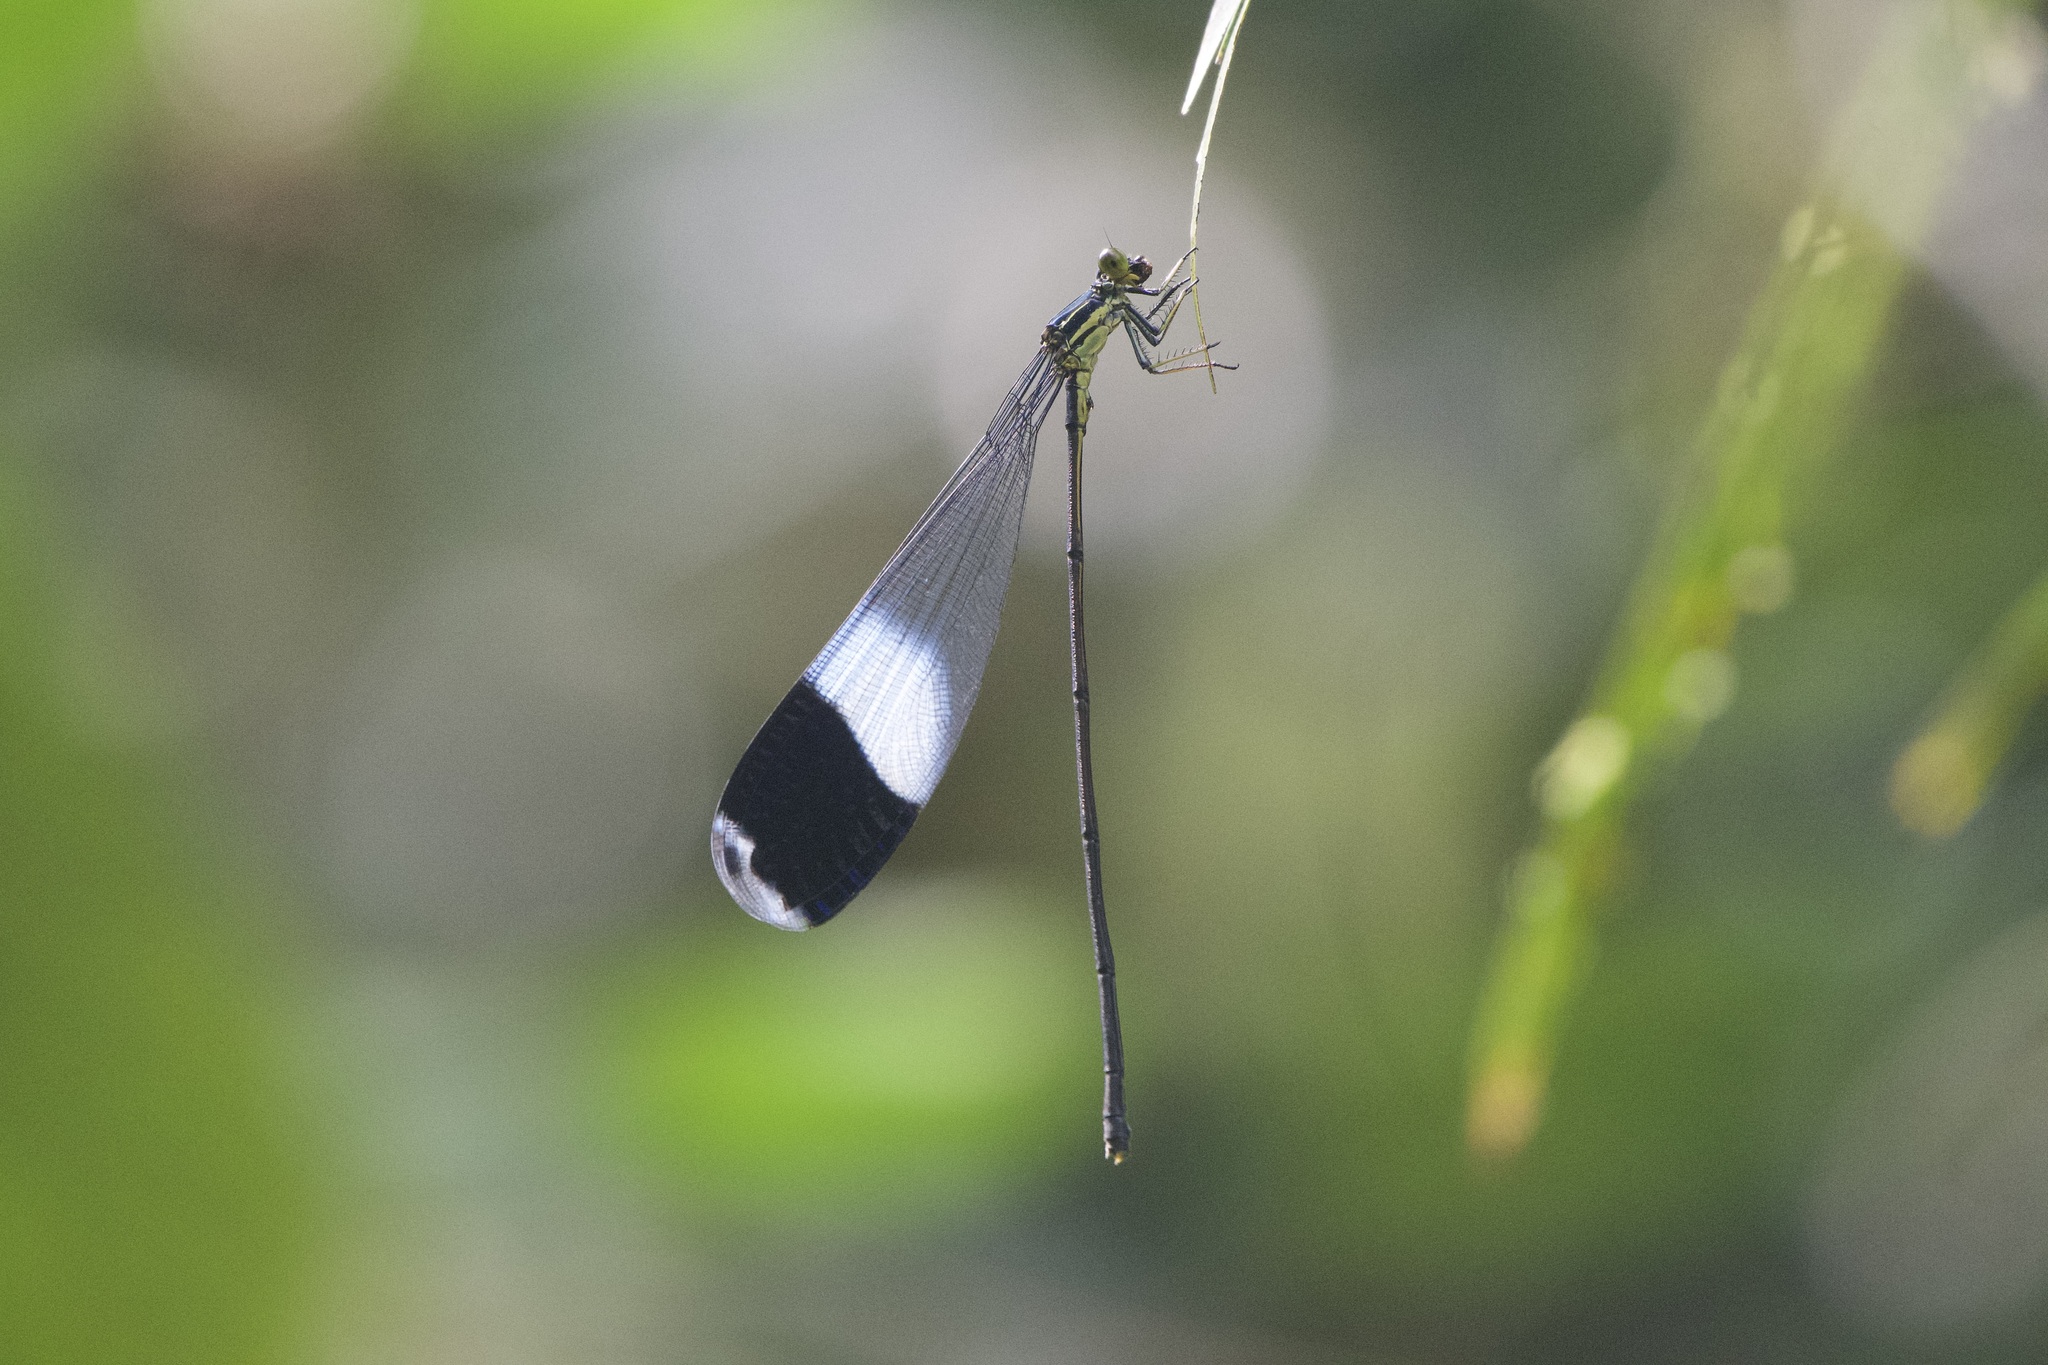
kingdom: Animalia
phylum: Arthropoda
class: Insecta
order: Odonata
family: Coenagrionidae
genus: Megaloprepus
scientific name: Megaloprepus caerulatus
